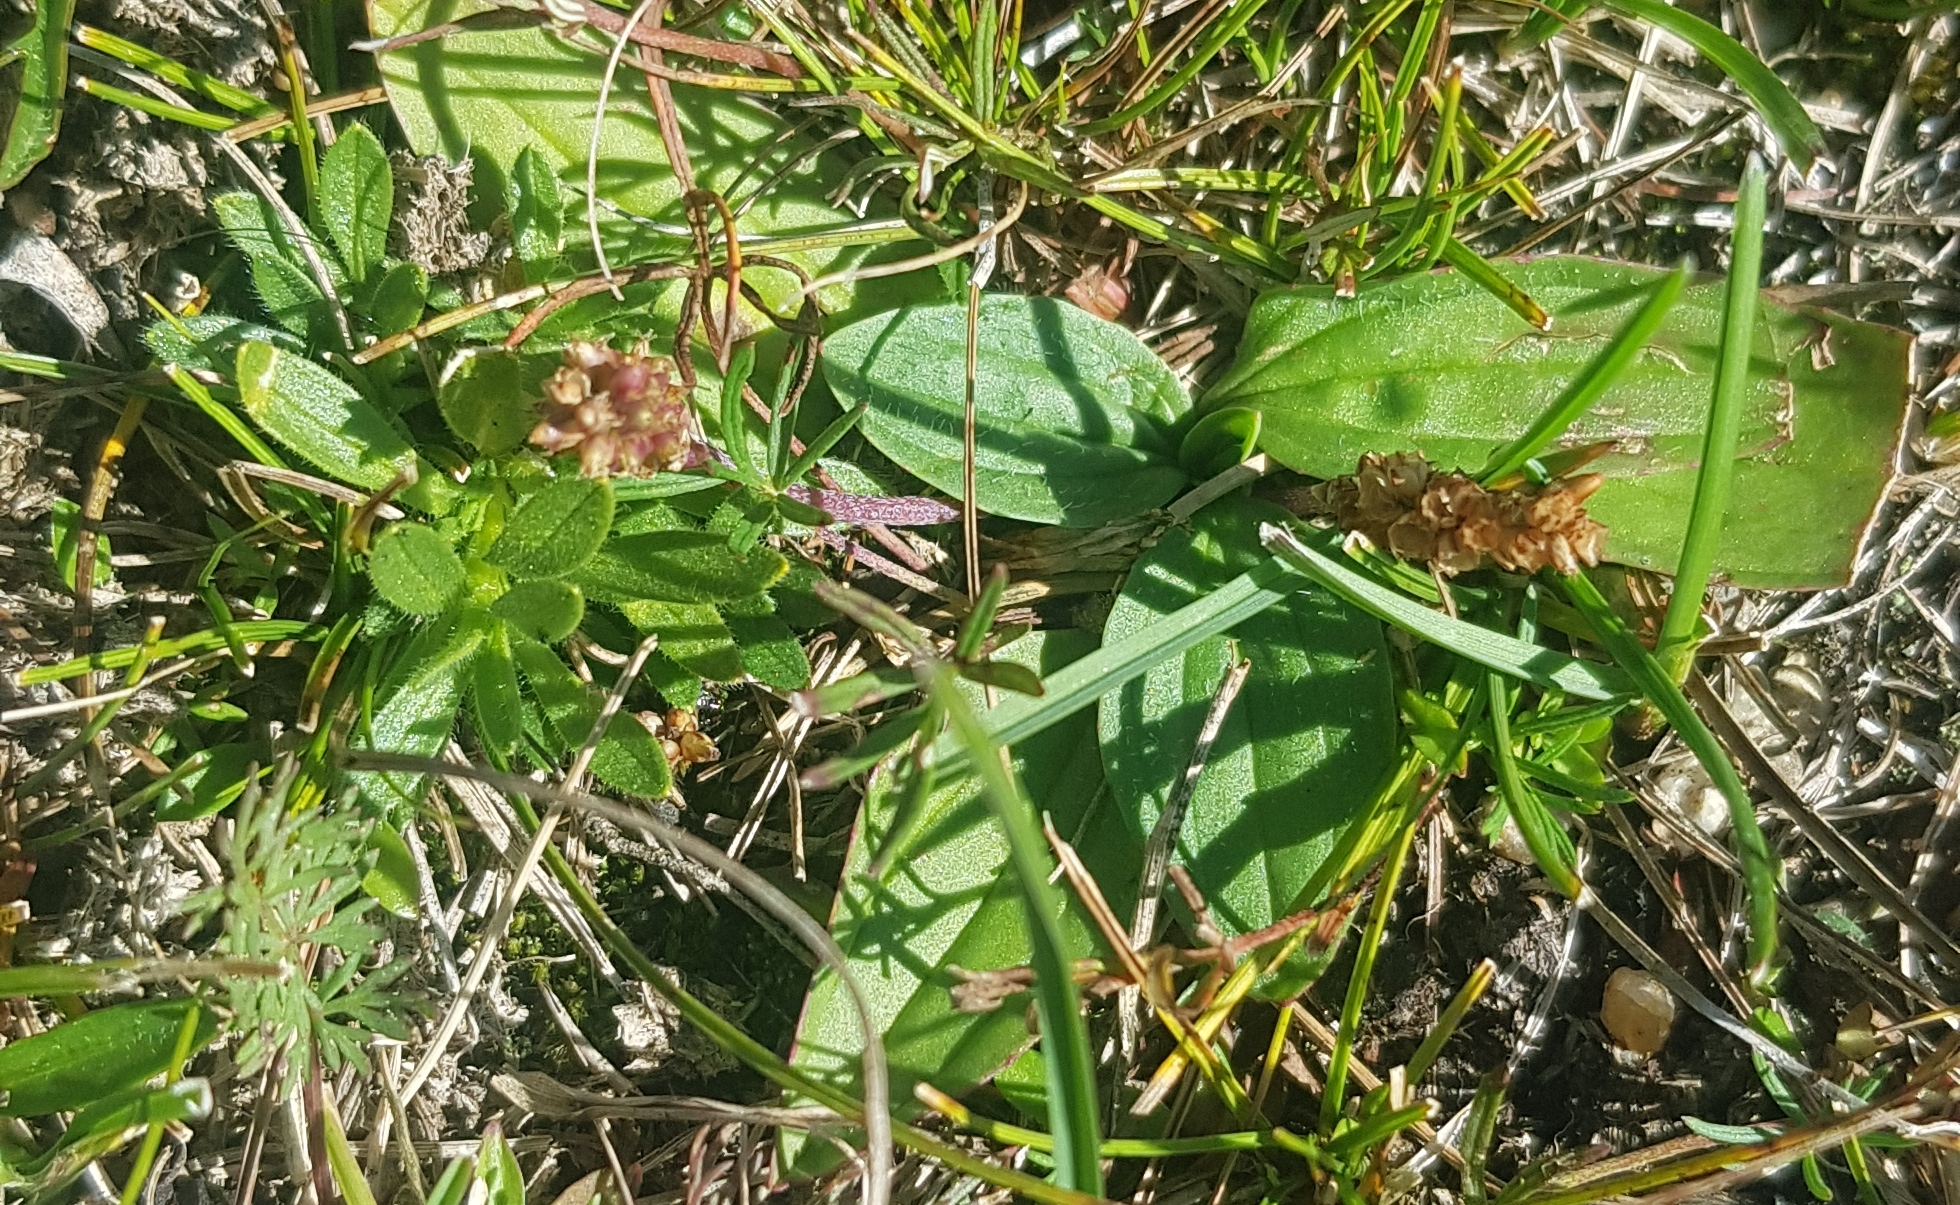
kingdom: Plantae
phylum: Tracheophyta
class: Magnoliopsida
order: Lamiales
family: Plantaginaceae
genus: Plantago
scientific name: Plantago depressa
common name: Depressed plantain
